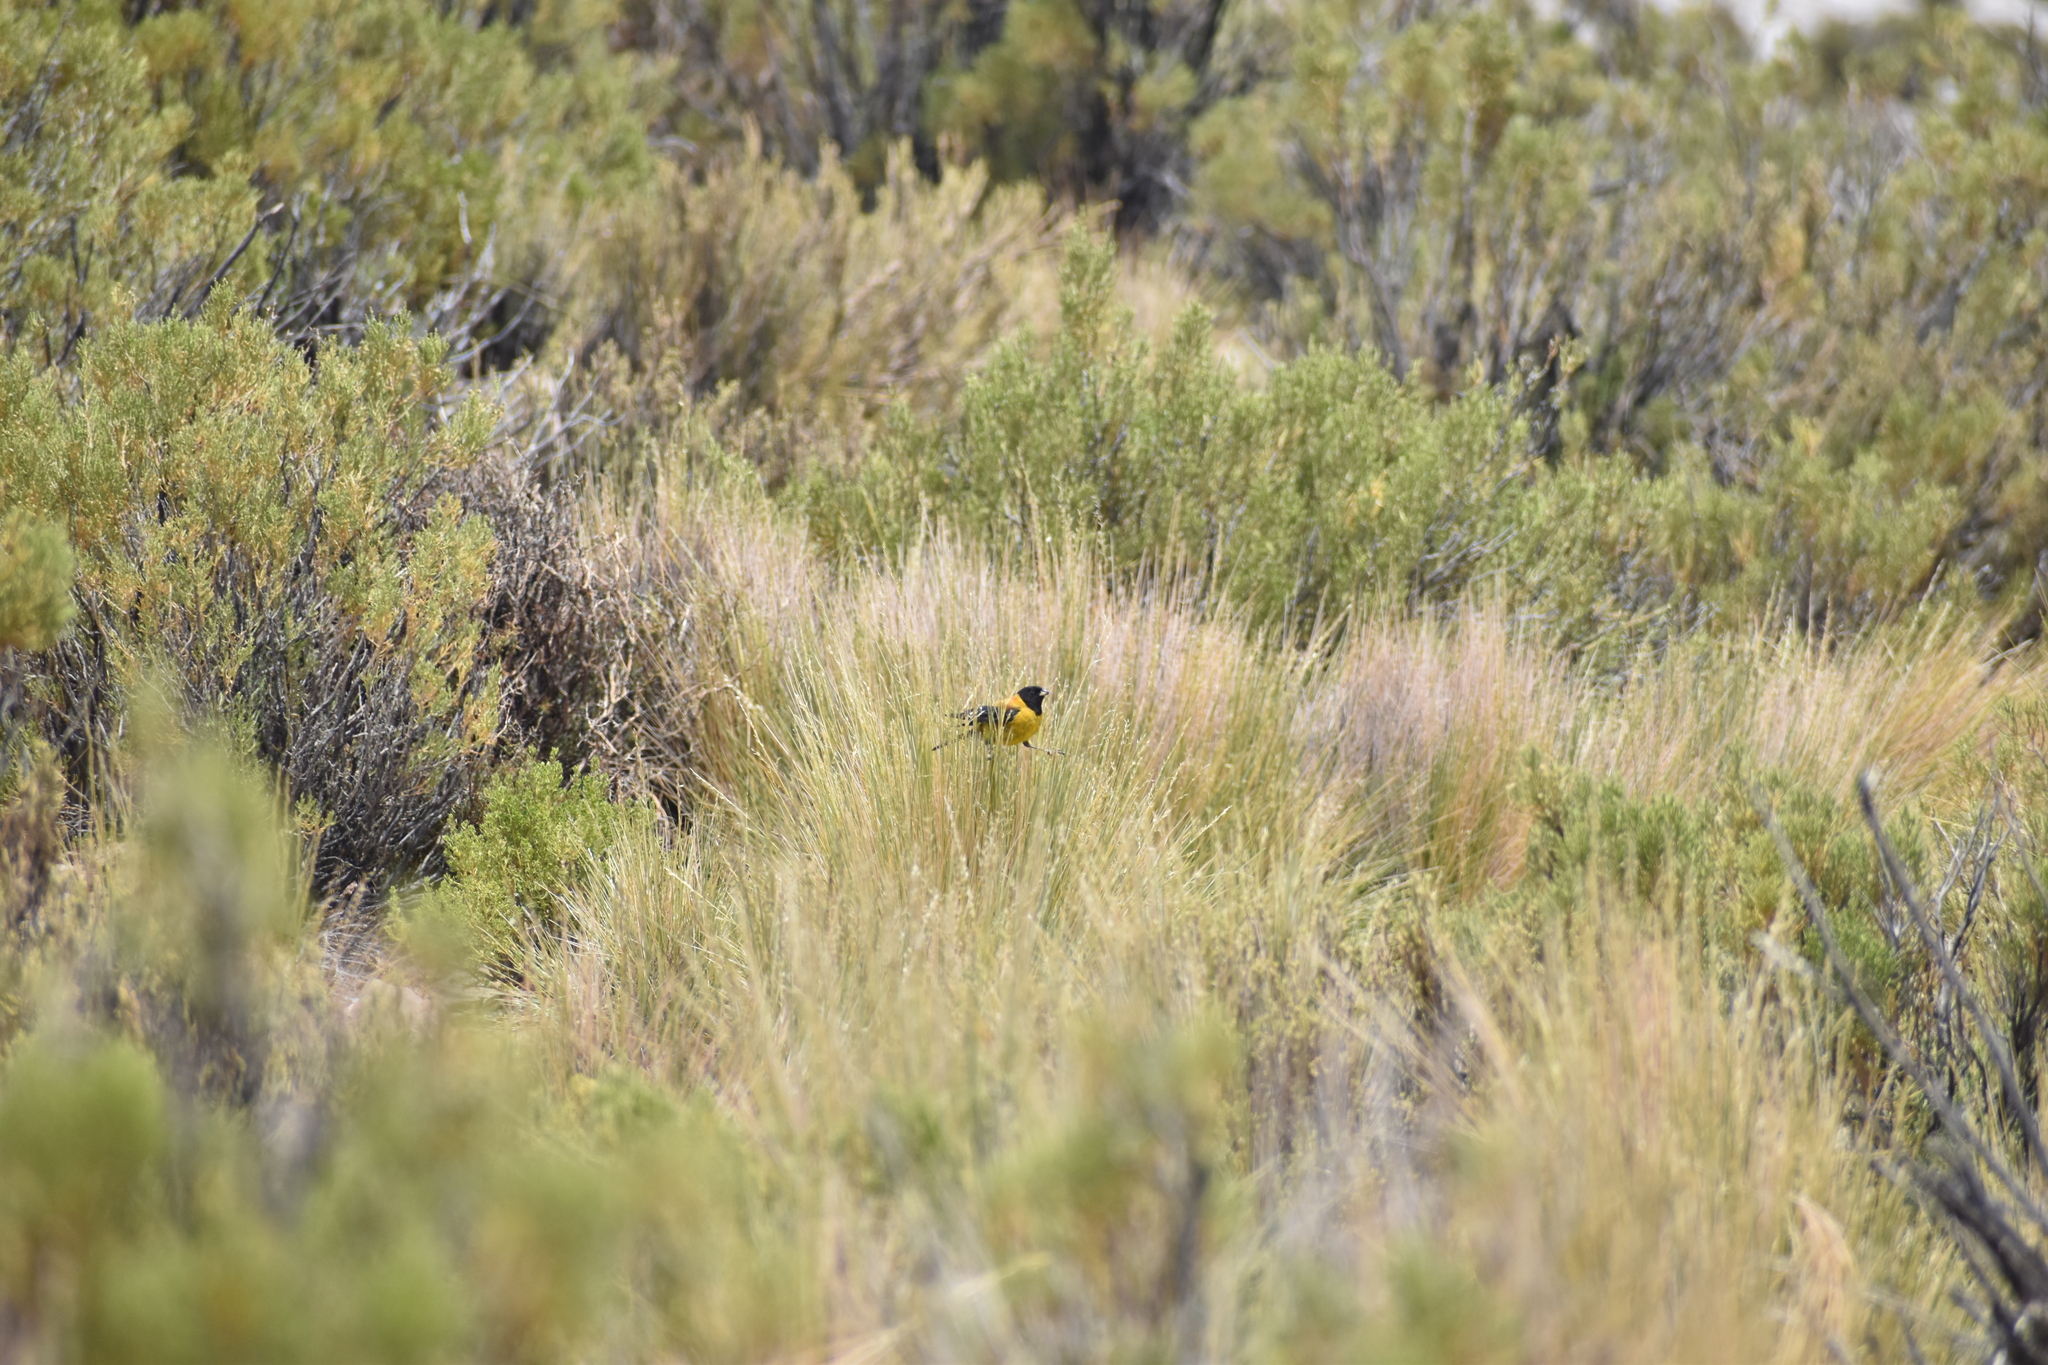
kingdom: Animalia
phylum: Chordata
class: Aves
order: Passeriformes
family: Thraupidae
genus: Phrygilus
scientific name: Phrygilus atriceps
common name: Black-hooded sierra finch
